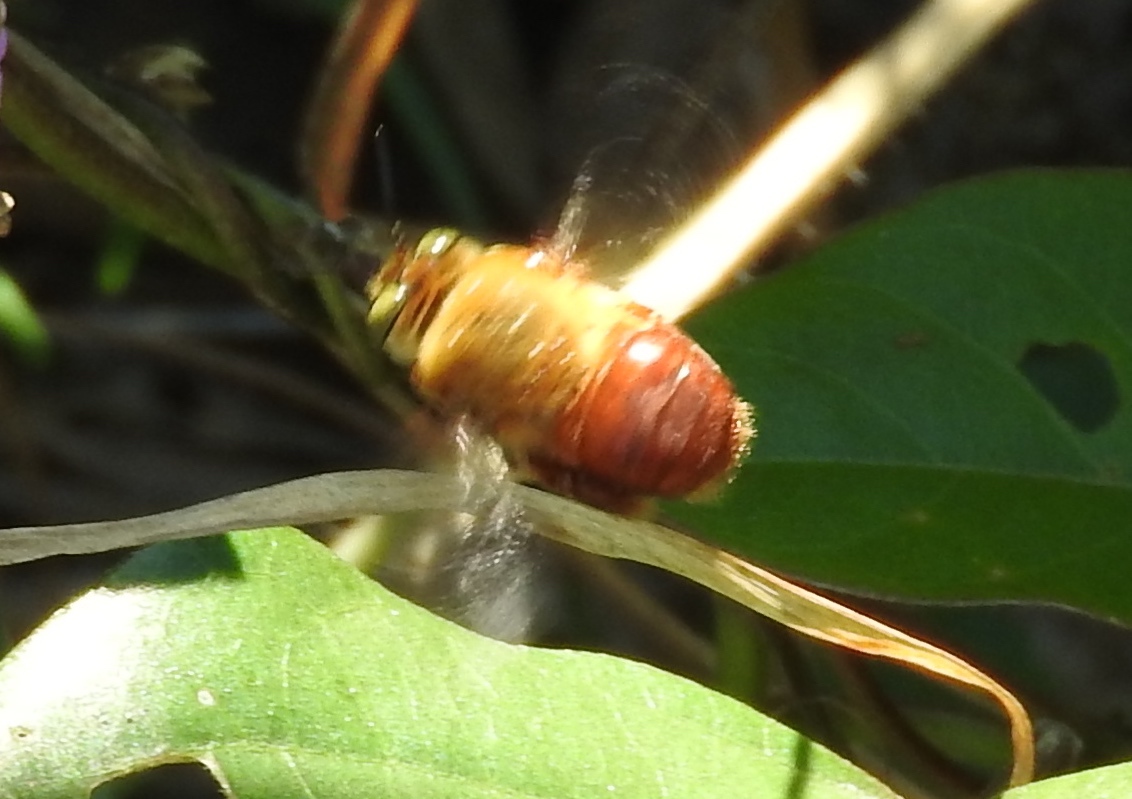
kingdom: Animalia
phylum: Arthropoda
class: Insecta
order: Hymenoptera
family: Apidae
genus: Centris
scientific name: Centris
